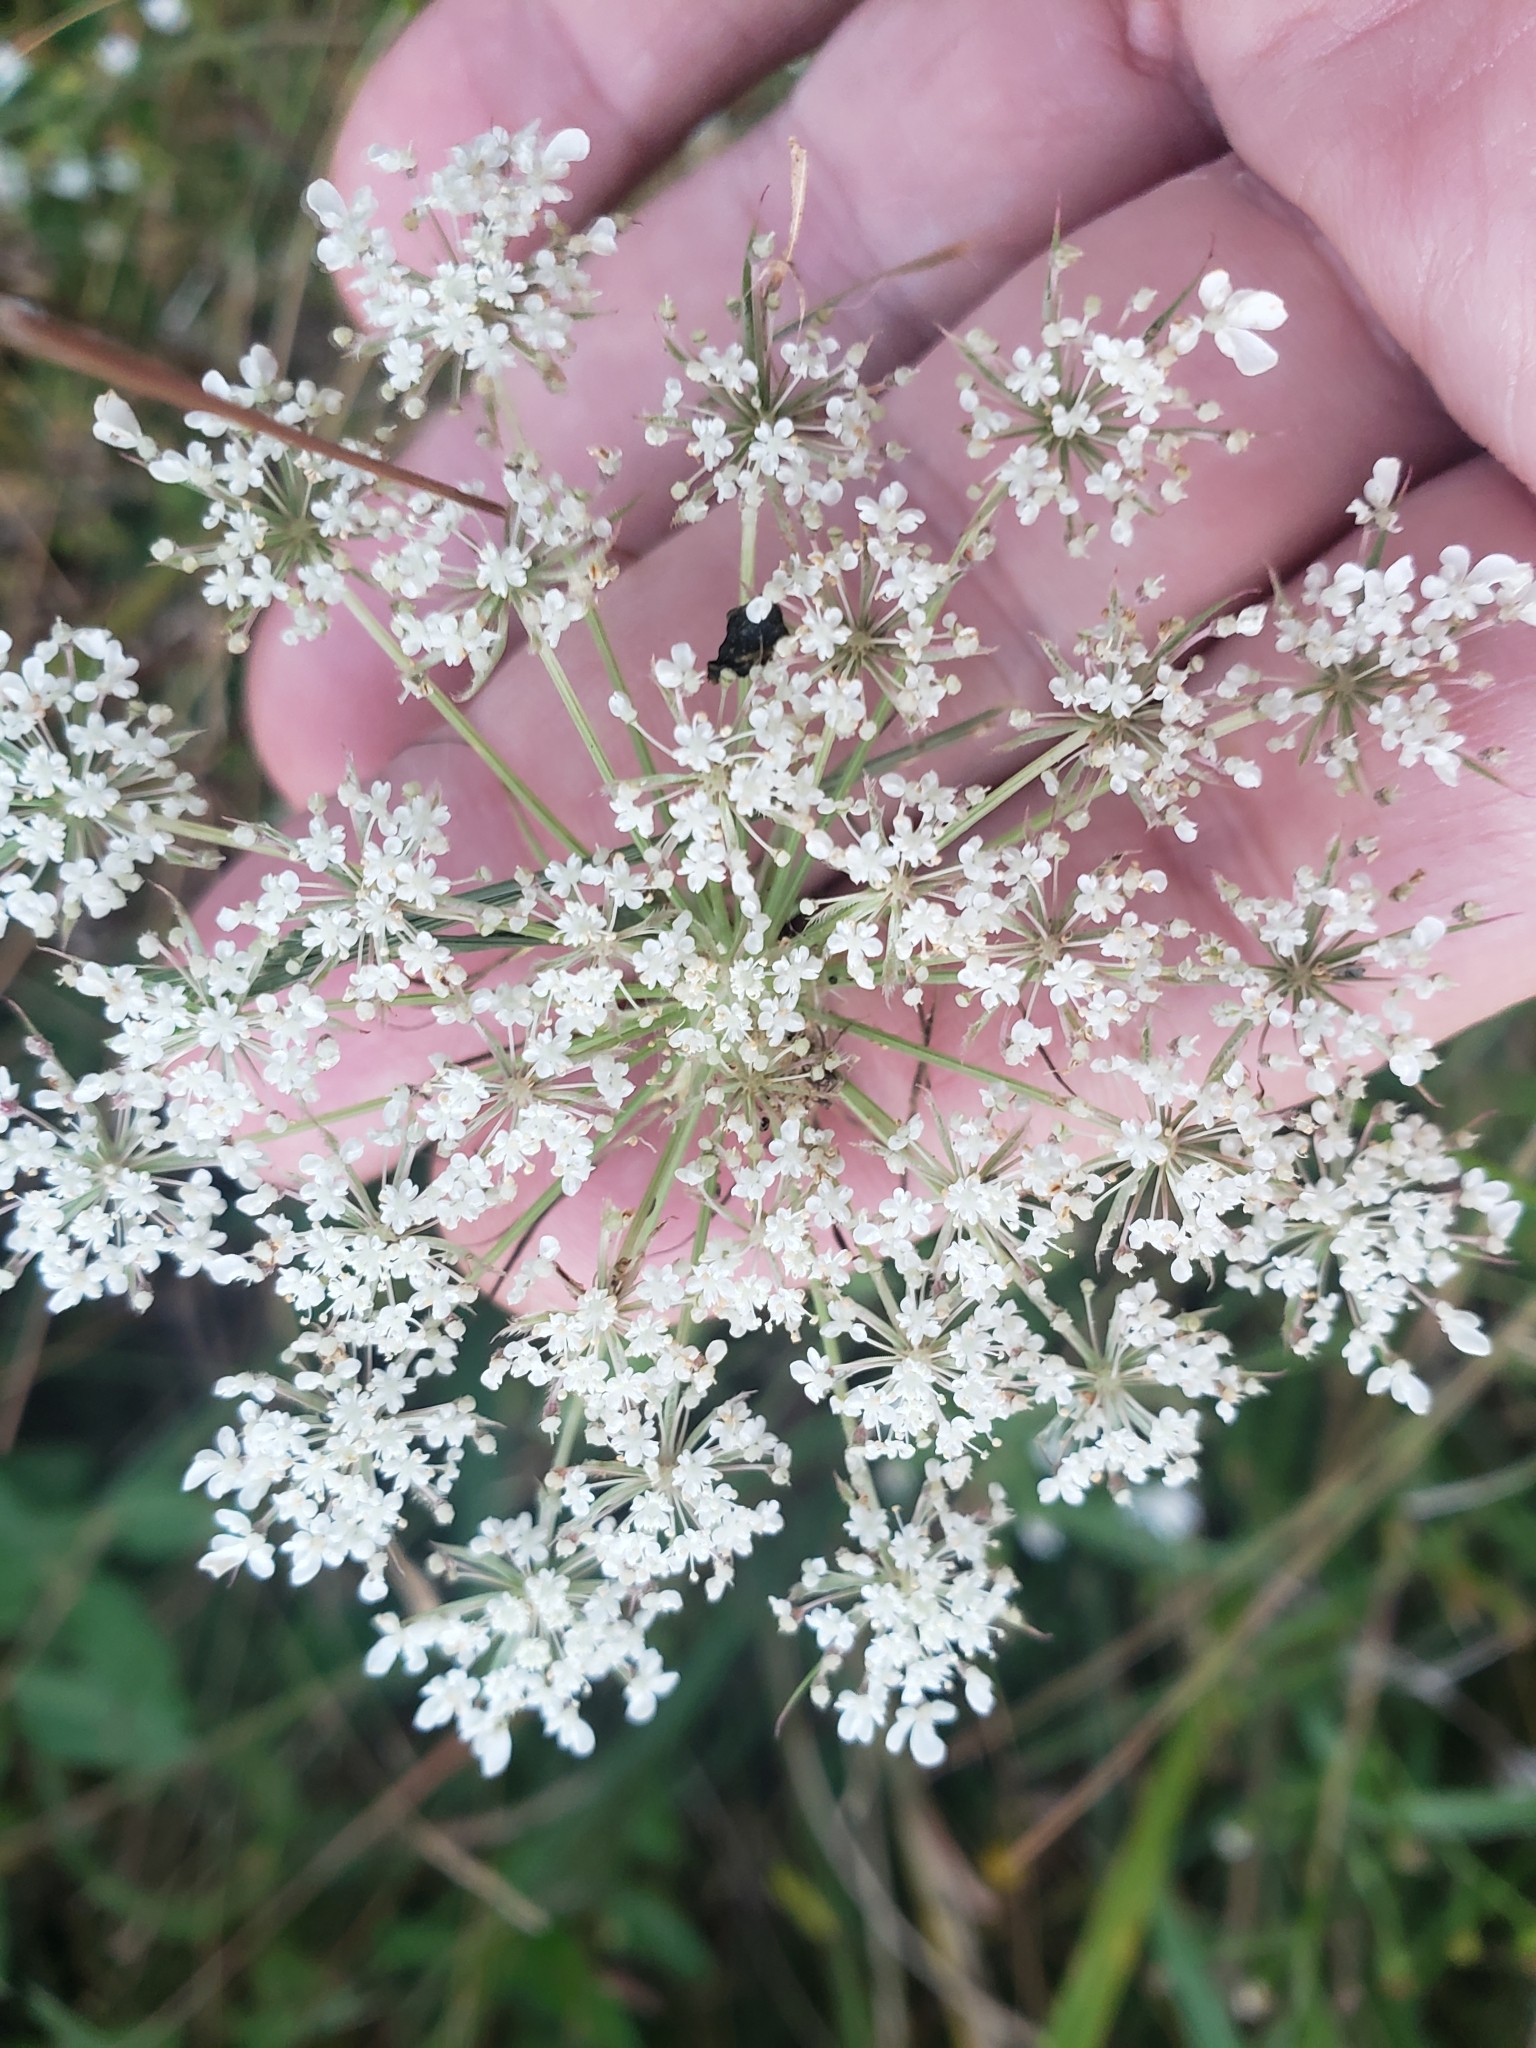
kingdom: Plantae
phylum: Tracheophyta
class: Magnoliopsida
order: Apiales
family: Apiaceae
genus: Daucus
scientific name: Daucus carota
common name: Wild carrot
